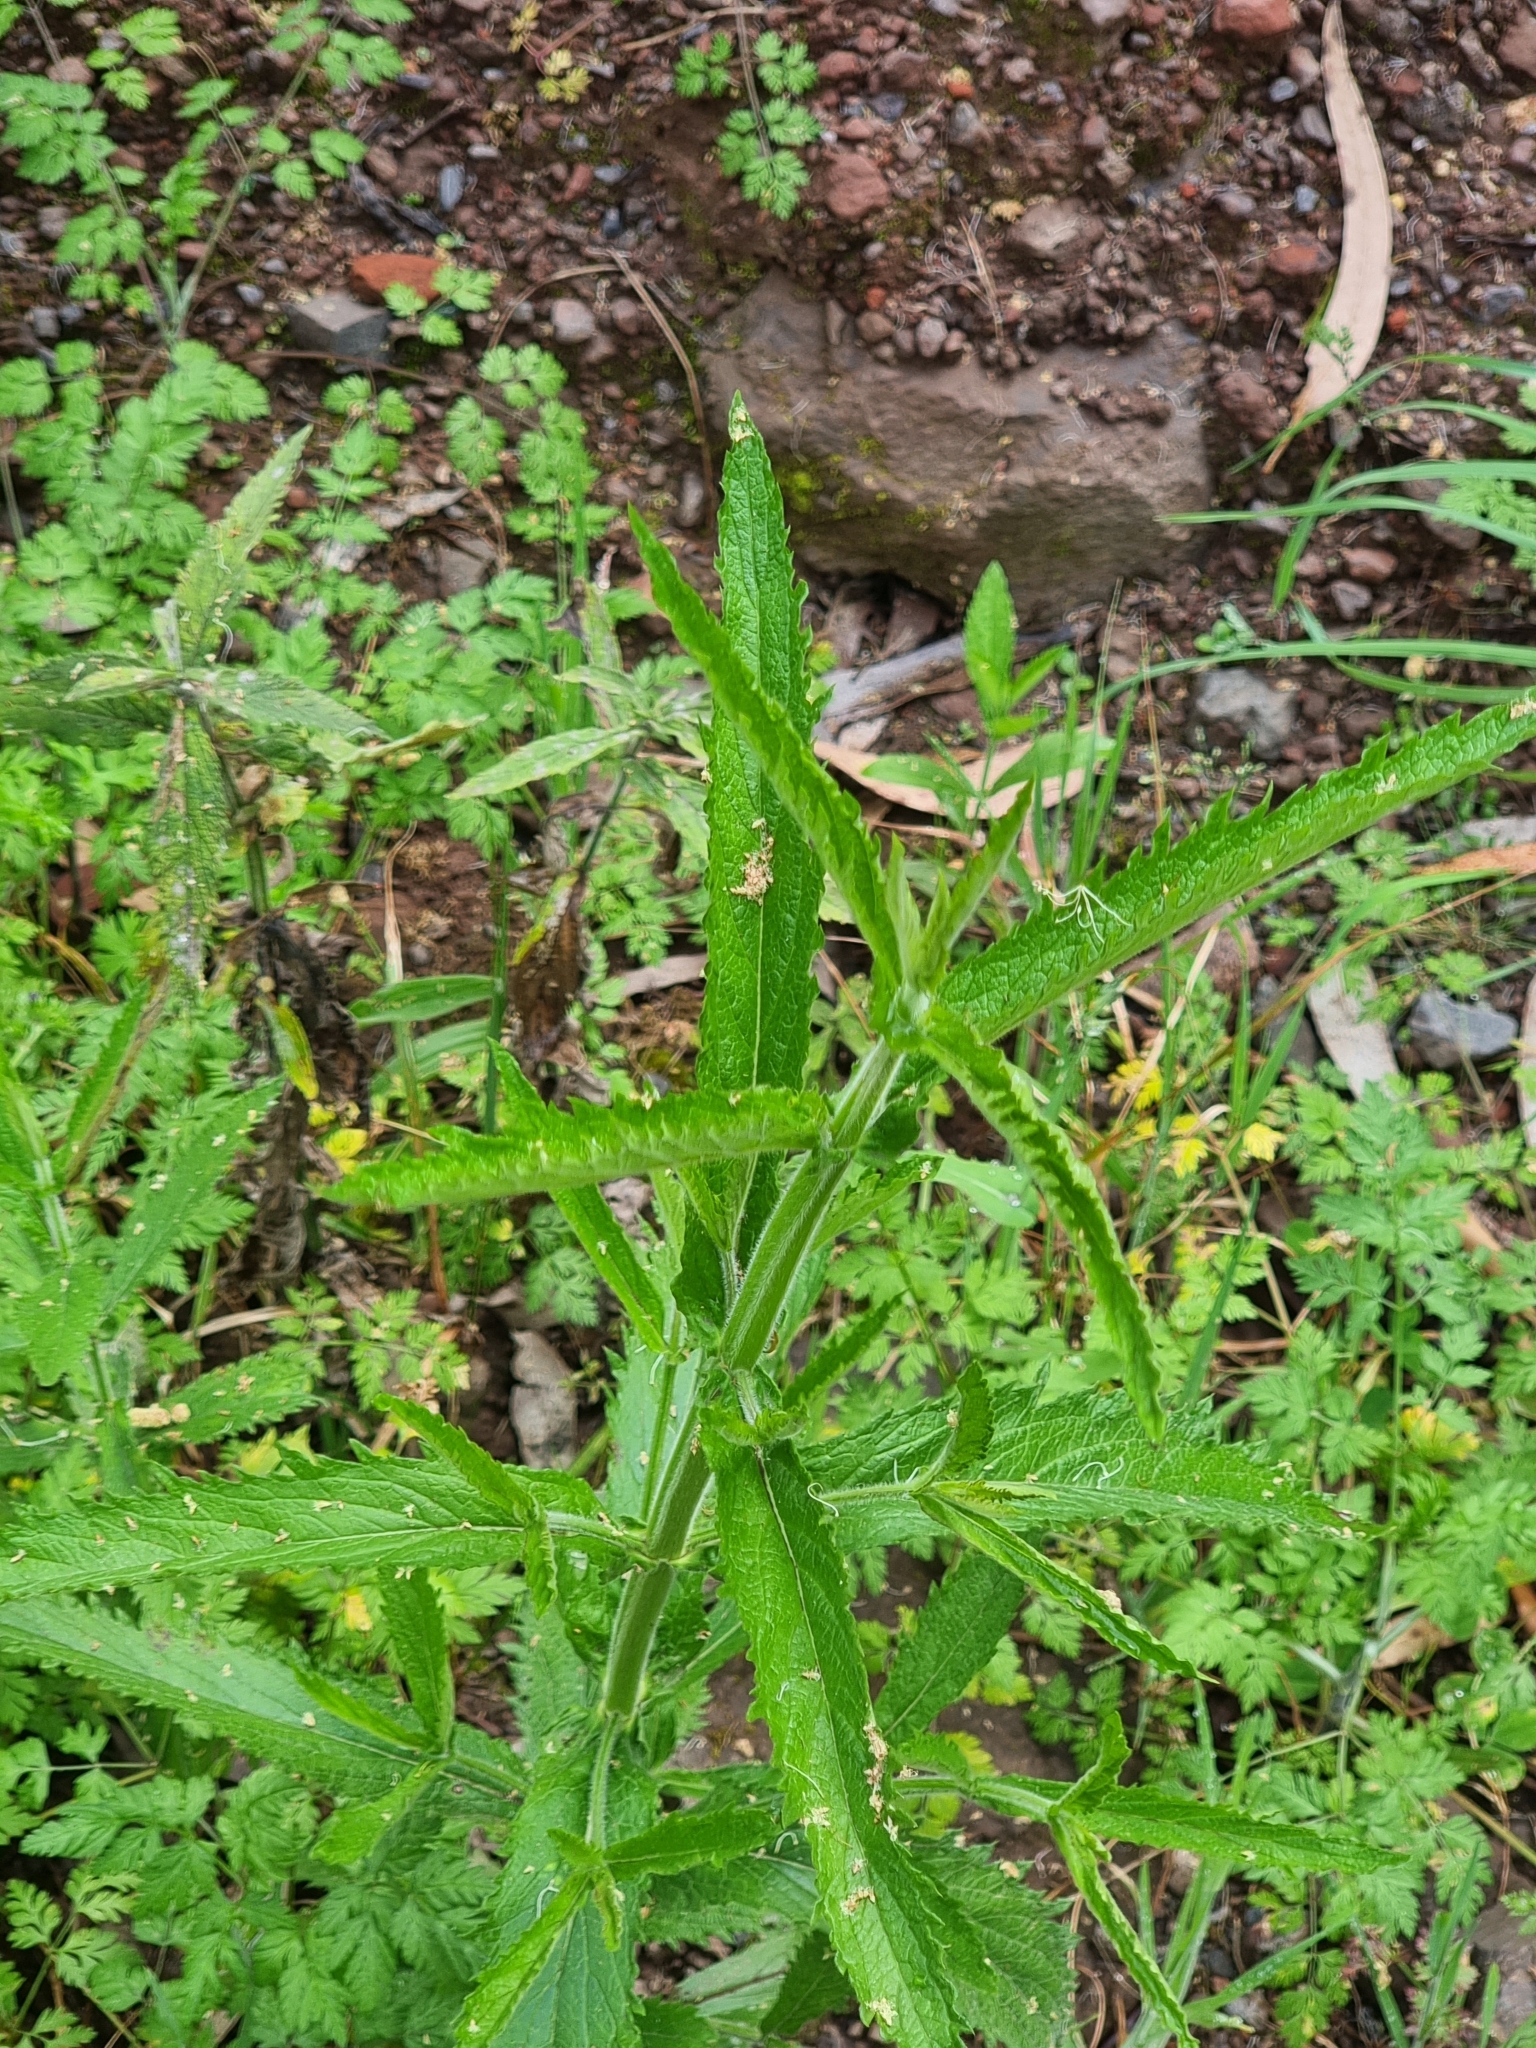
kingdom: Plantae
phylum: Tracheophyta
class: Magnoliopsida
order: Lamiales
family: Verbenaceae
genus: Verbena
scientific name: Verbena bonariensis
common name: Purpletop vervain
